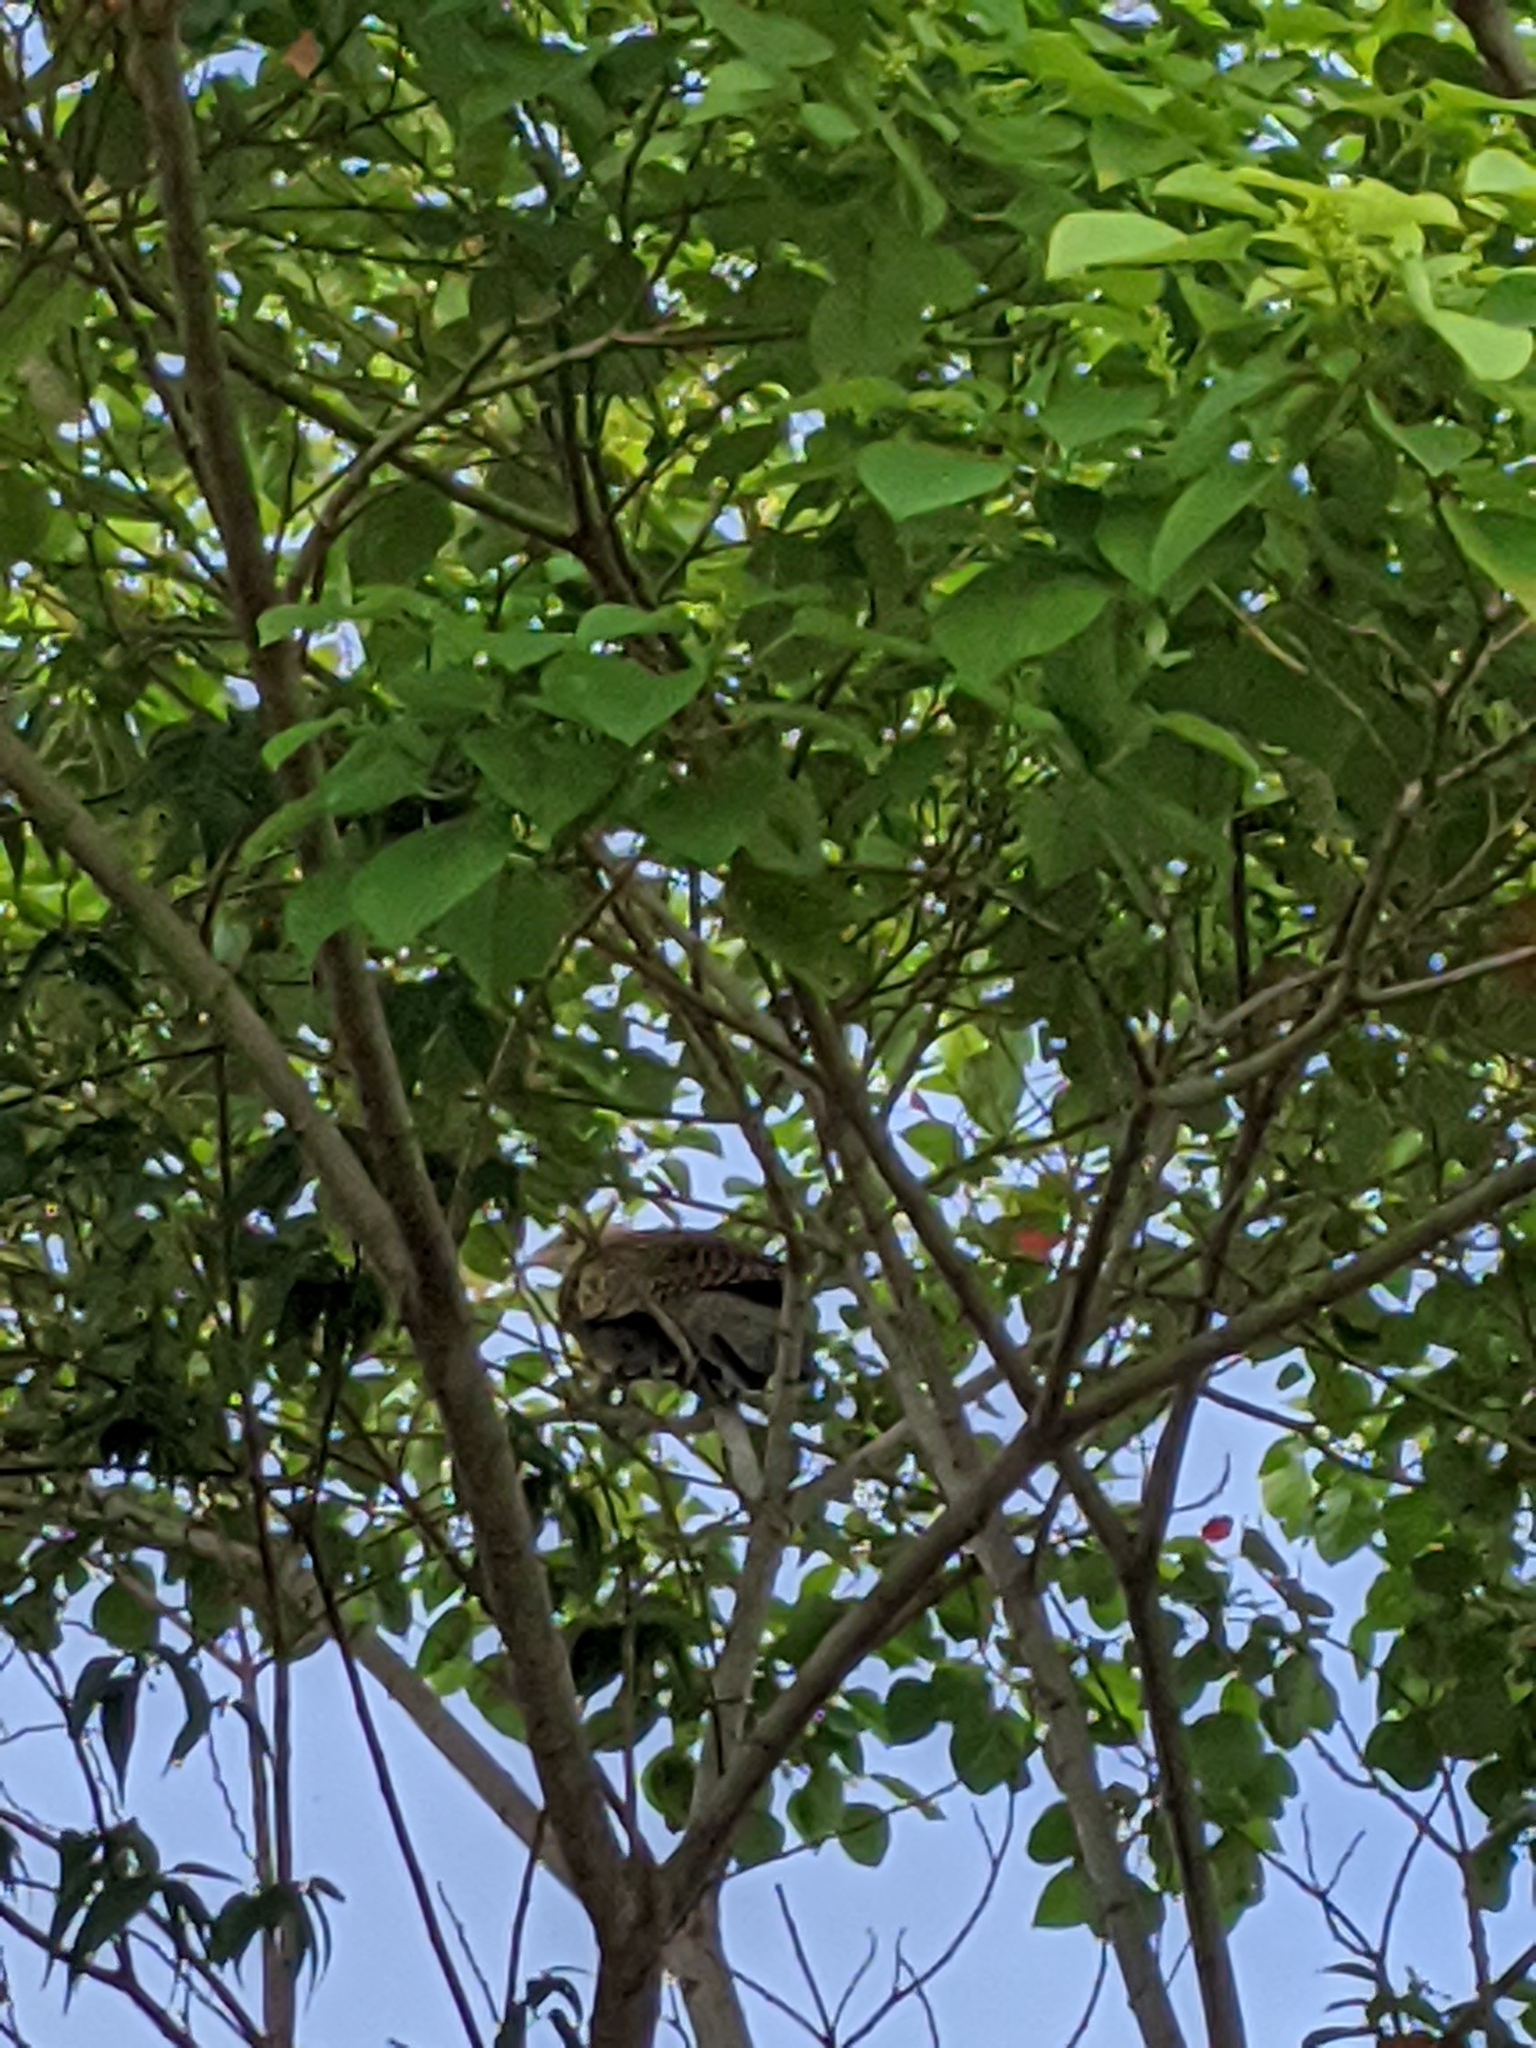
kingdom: Animalia
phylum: Chordata
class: Aves
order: Cuculiformes
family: Cuculidae
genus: Centropus
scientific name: Centropus phasianinus
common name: Pheasant coucal
